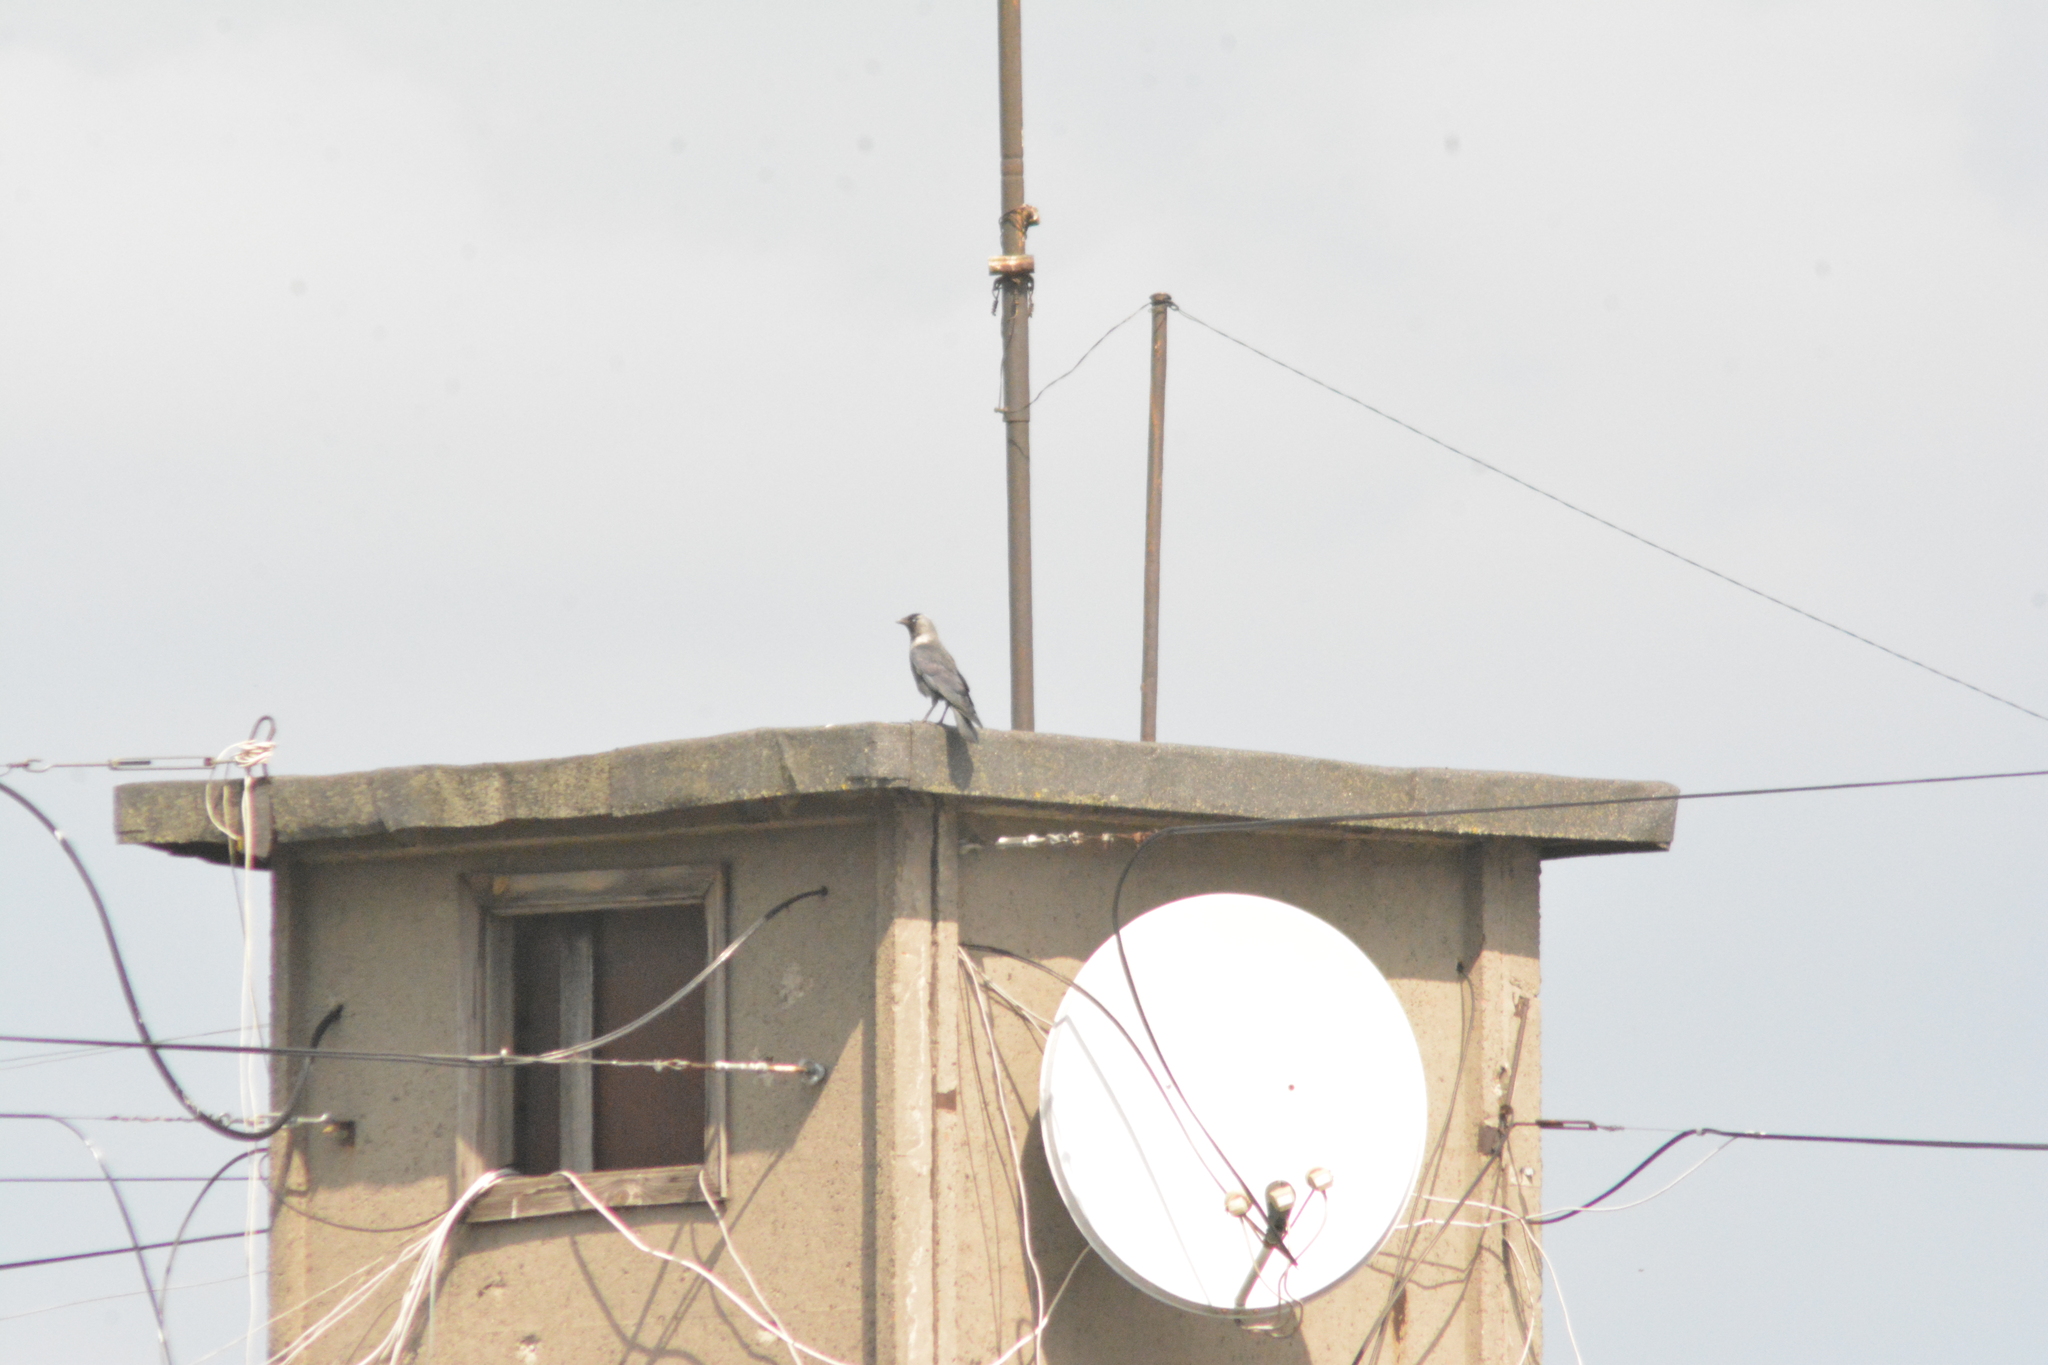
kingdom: Animalia
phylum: Chordata
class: Aves
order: Passeriformes
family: Corvidae
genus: Coloeus
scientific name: Coloeus monedula
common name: Western jackdaw
